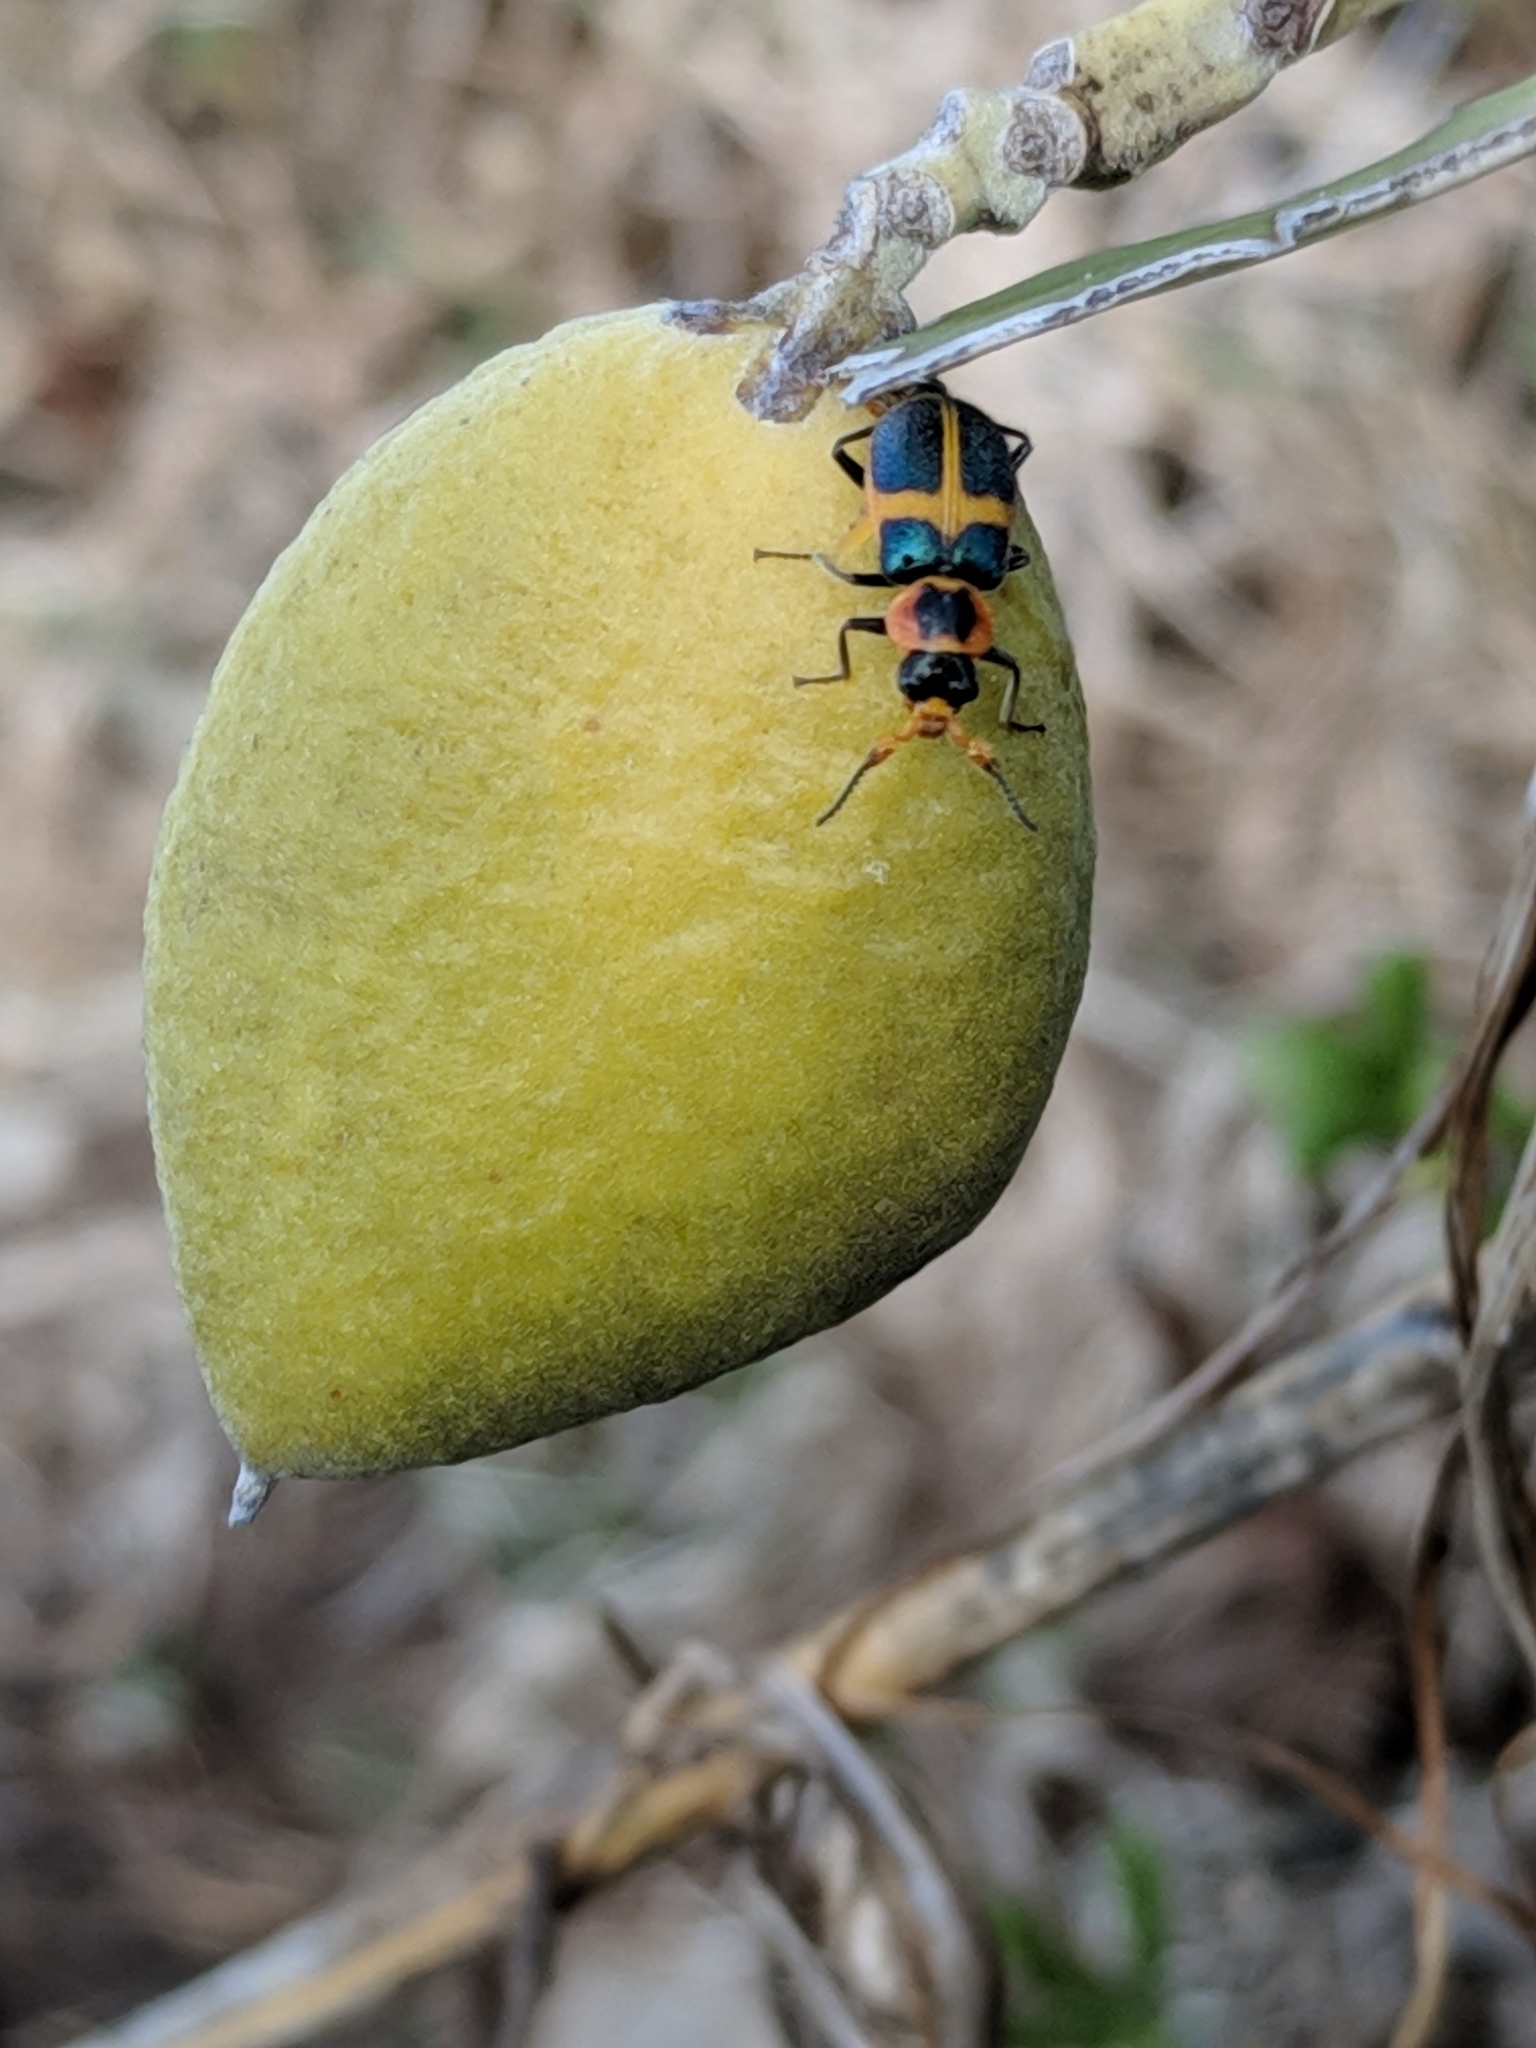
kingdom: Animalia
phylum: Arthropoda
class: Insecta
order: Coleoptera
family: Melyridae
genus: Collops
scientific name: Collops
